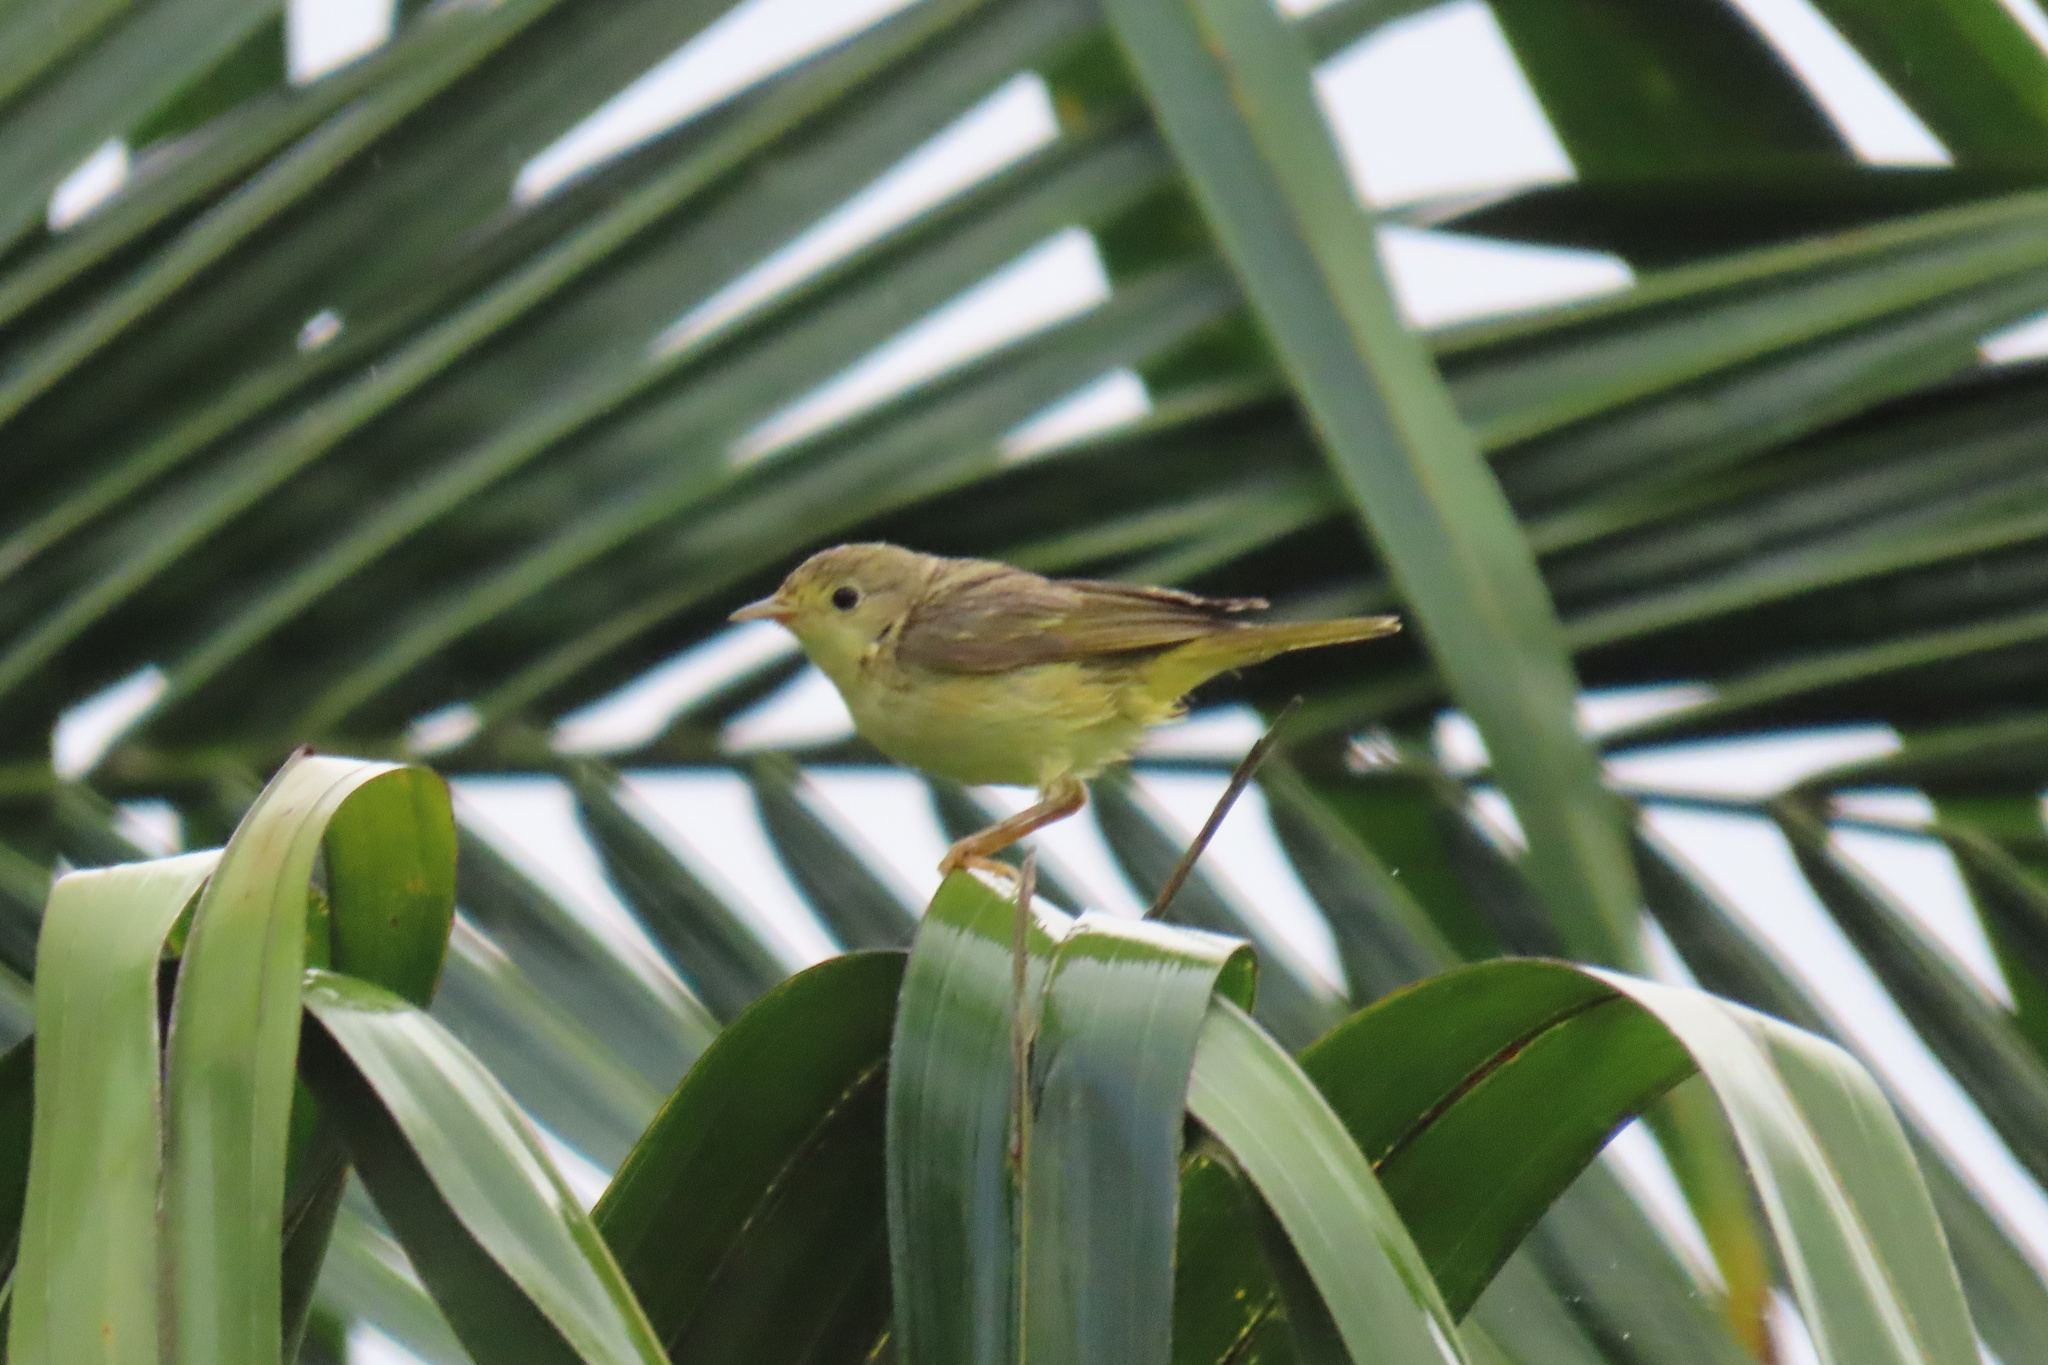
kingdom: Animalia
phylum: Chordata
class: Aves
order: Passeriformes
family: Parulidae
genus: Setophaga
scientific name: Setophaga petechia
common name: Yellow warbler
